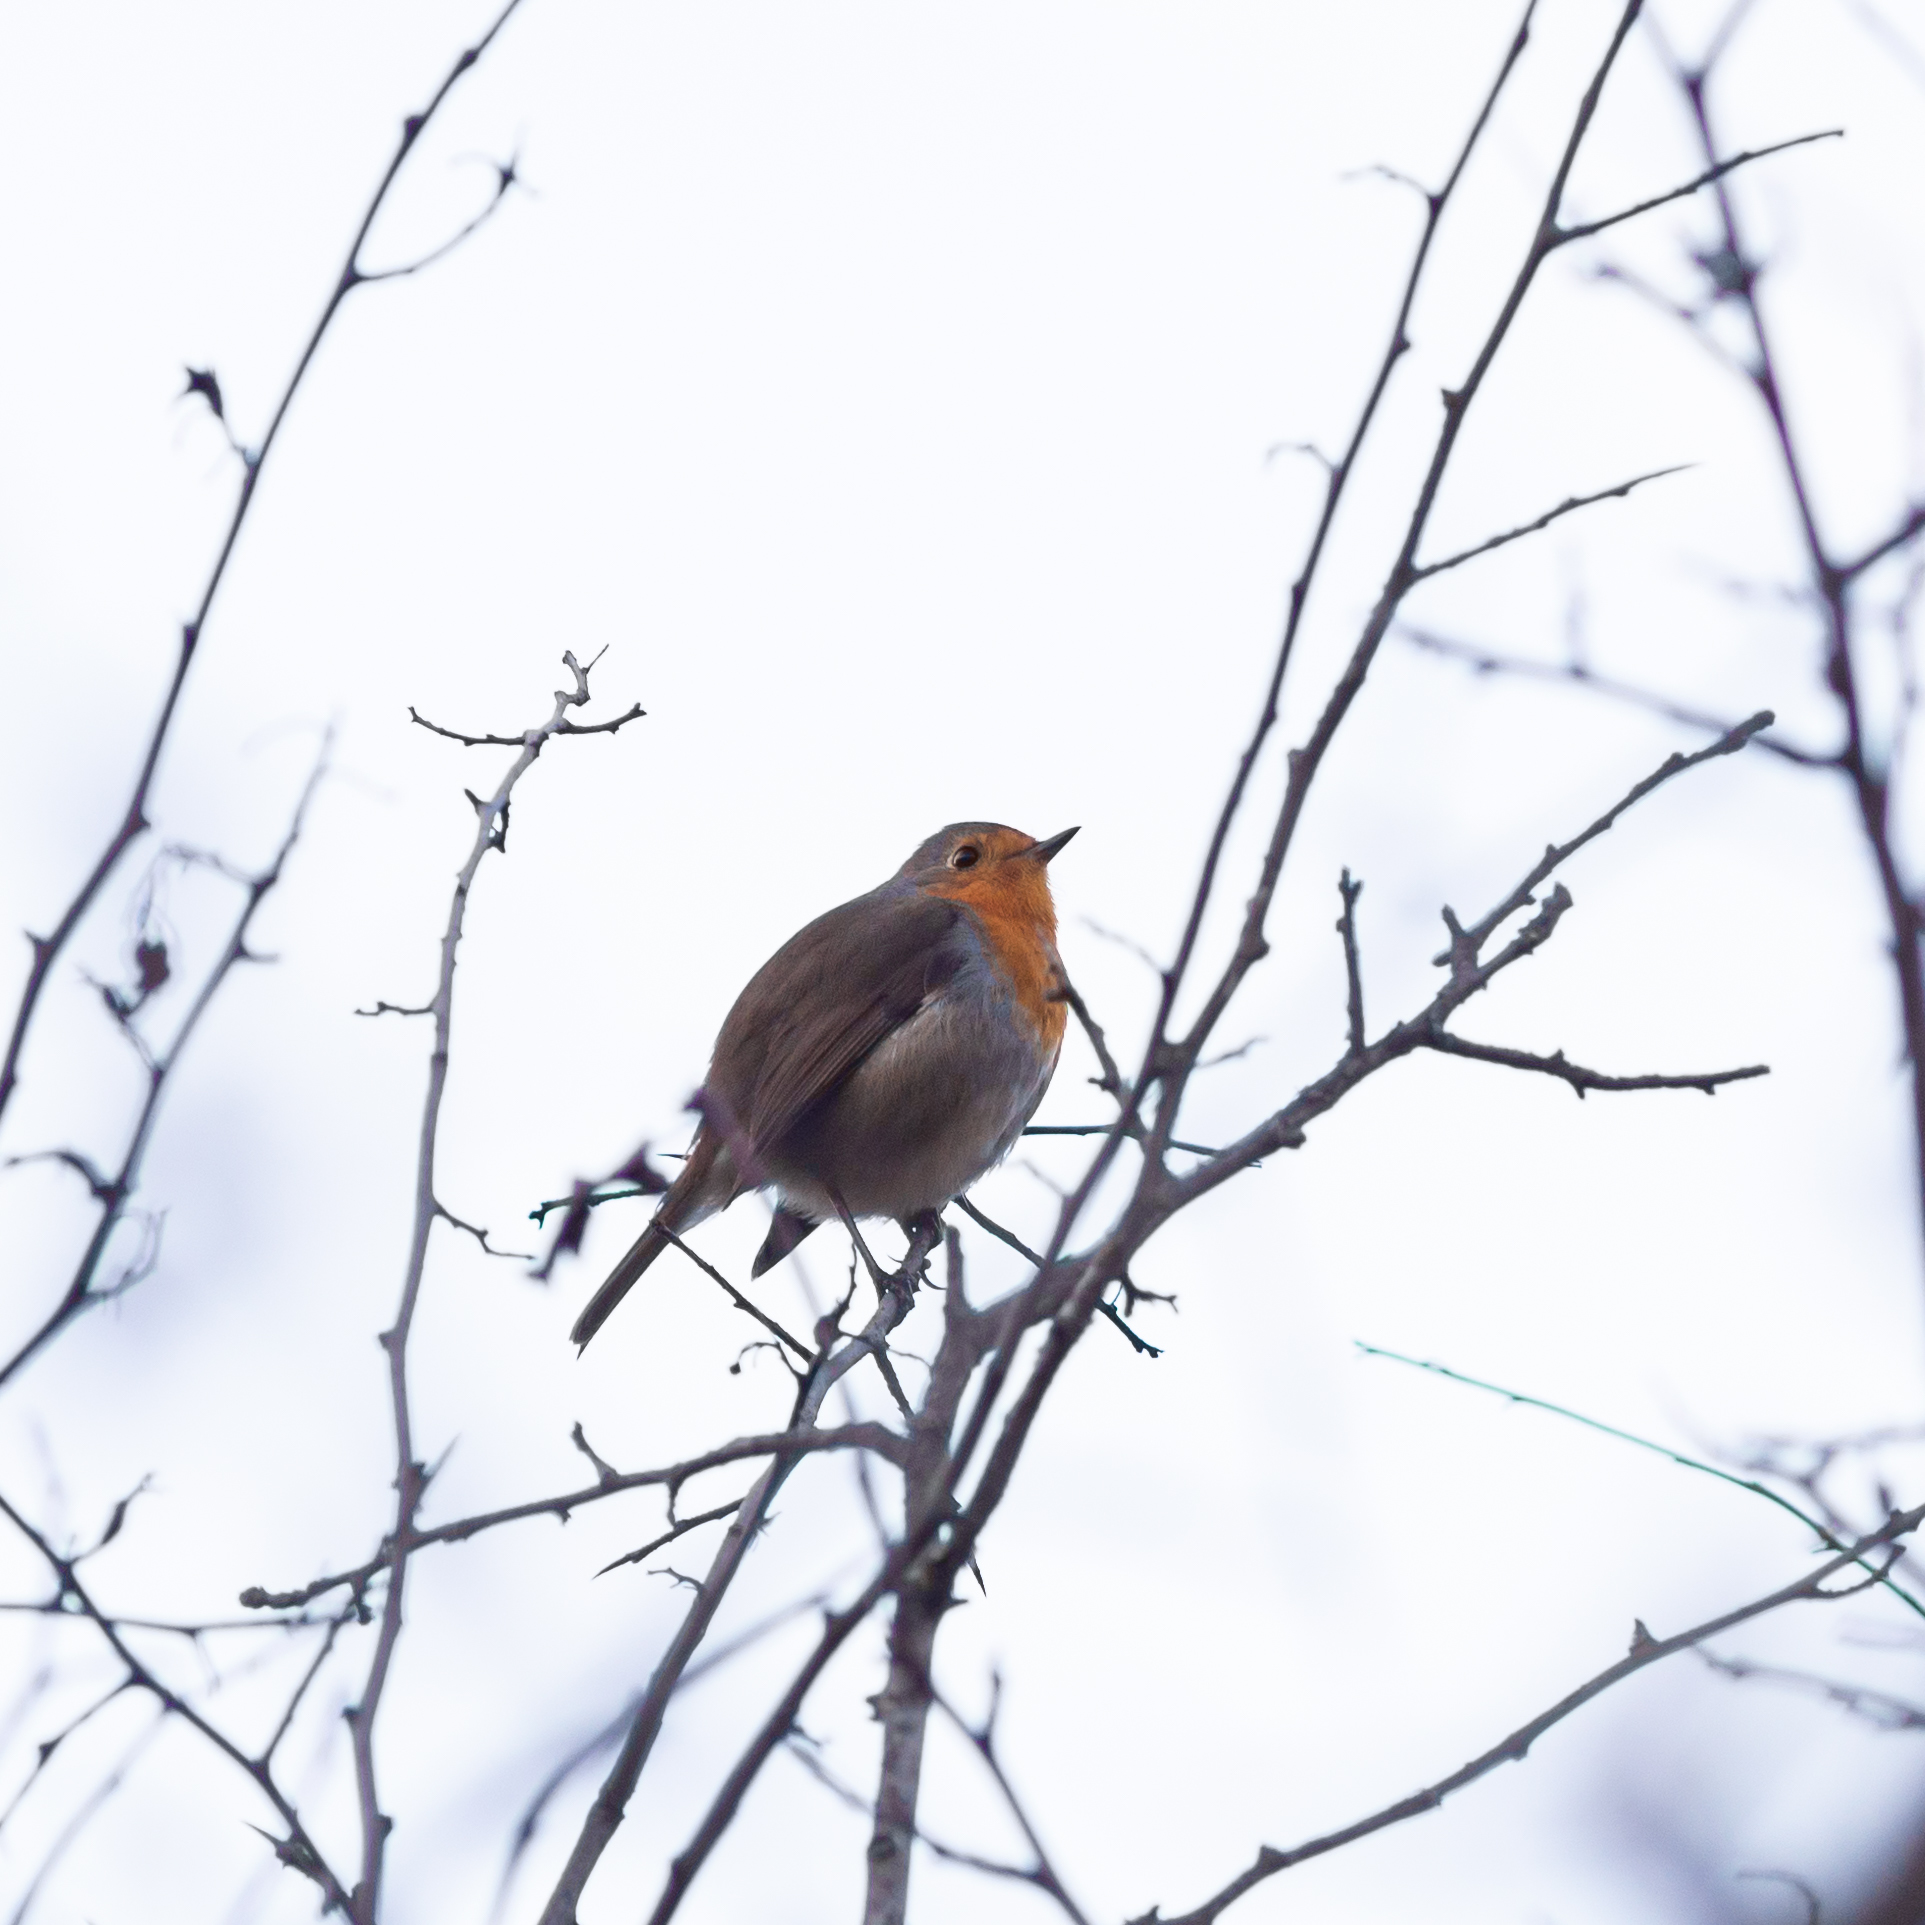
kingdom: Animalia
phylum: Chordata
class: Aves
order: Passeriformes
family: Muscicapidae
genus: Erithacus
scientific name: Erithacus rubecula
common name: European robin
